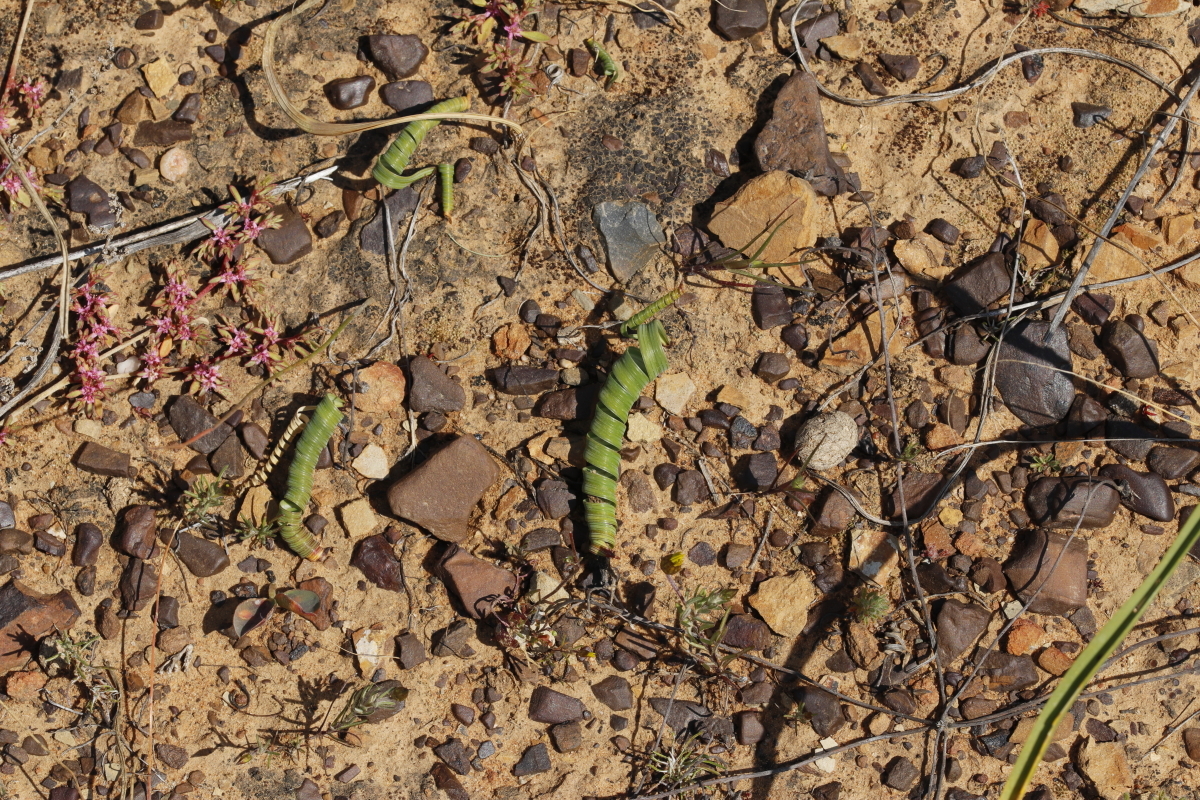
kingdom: Plantae
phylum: Tracheophyta
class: Liliopsida
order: Asparagales
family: Iridaceae
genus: Moraea
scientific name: Moraea pritzeliana
